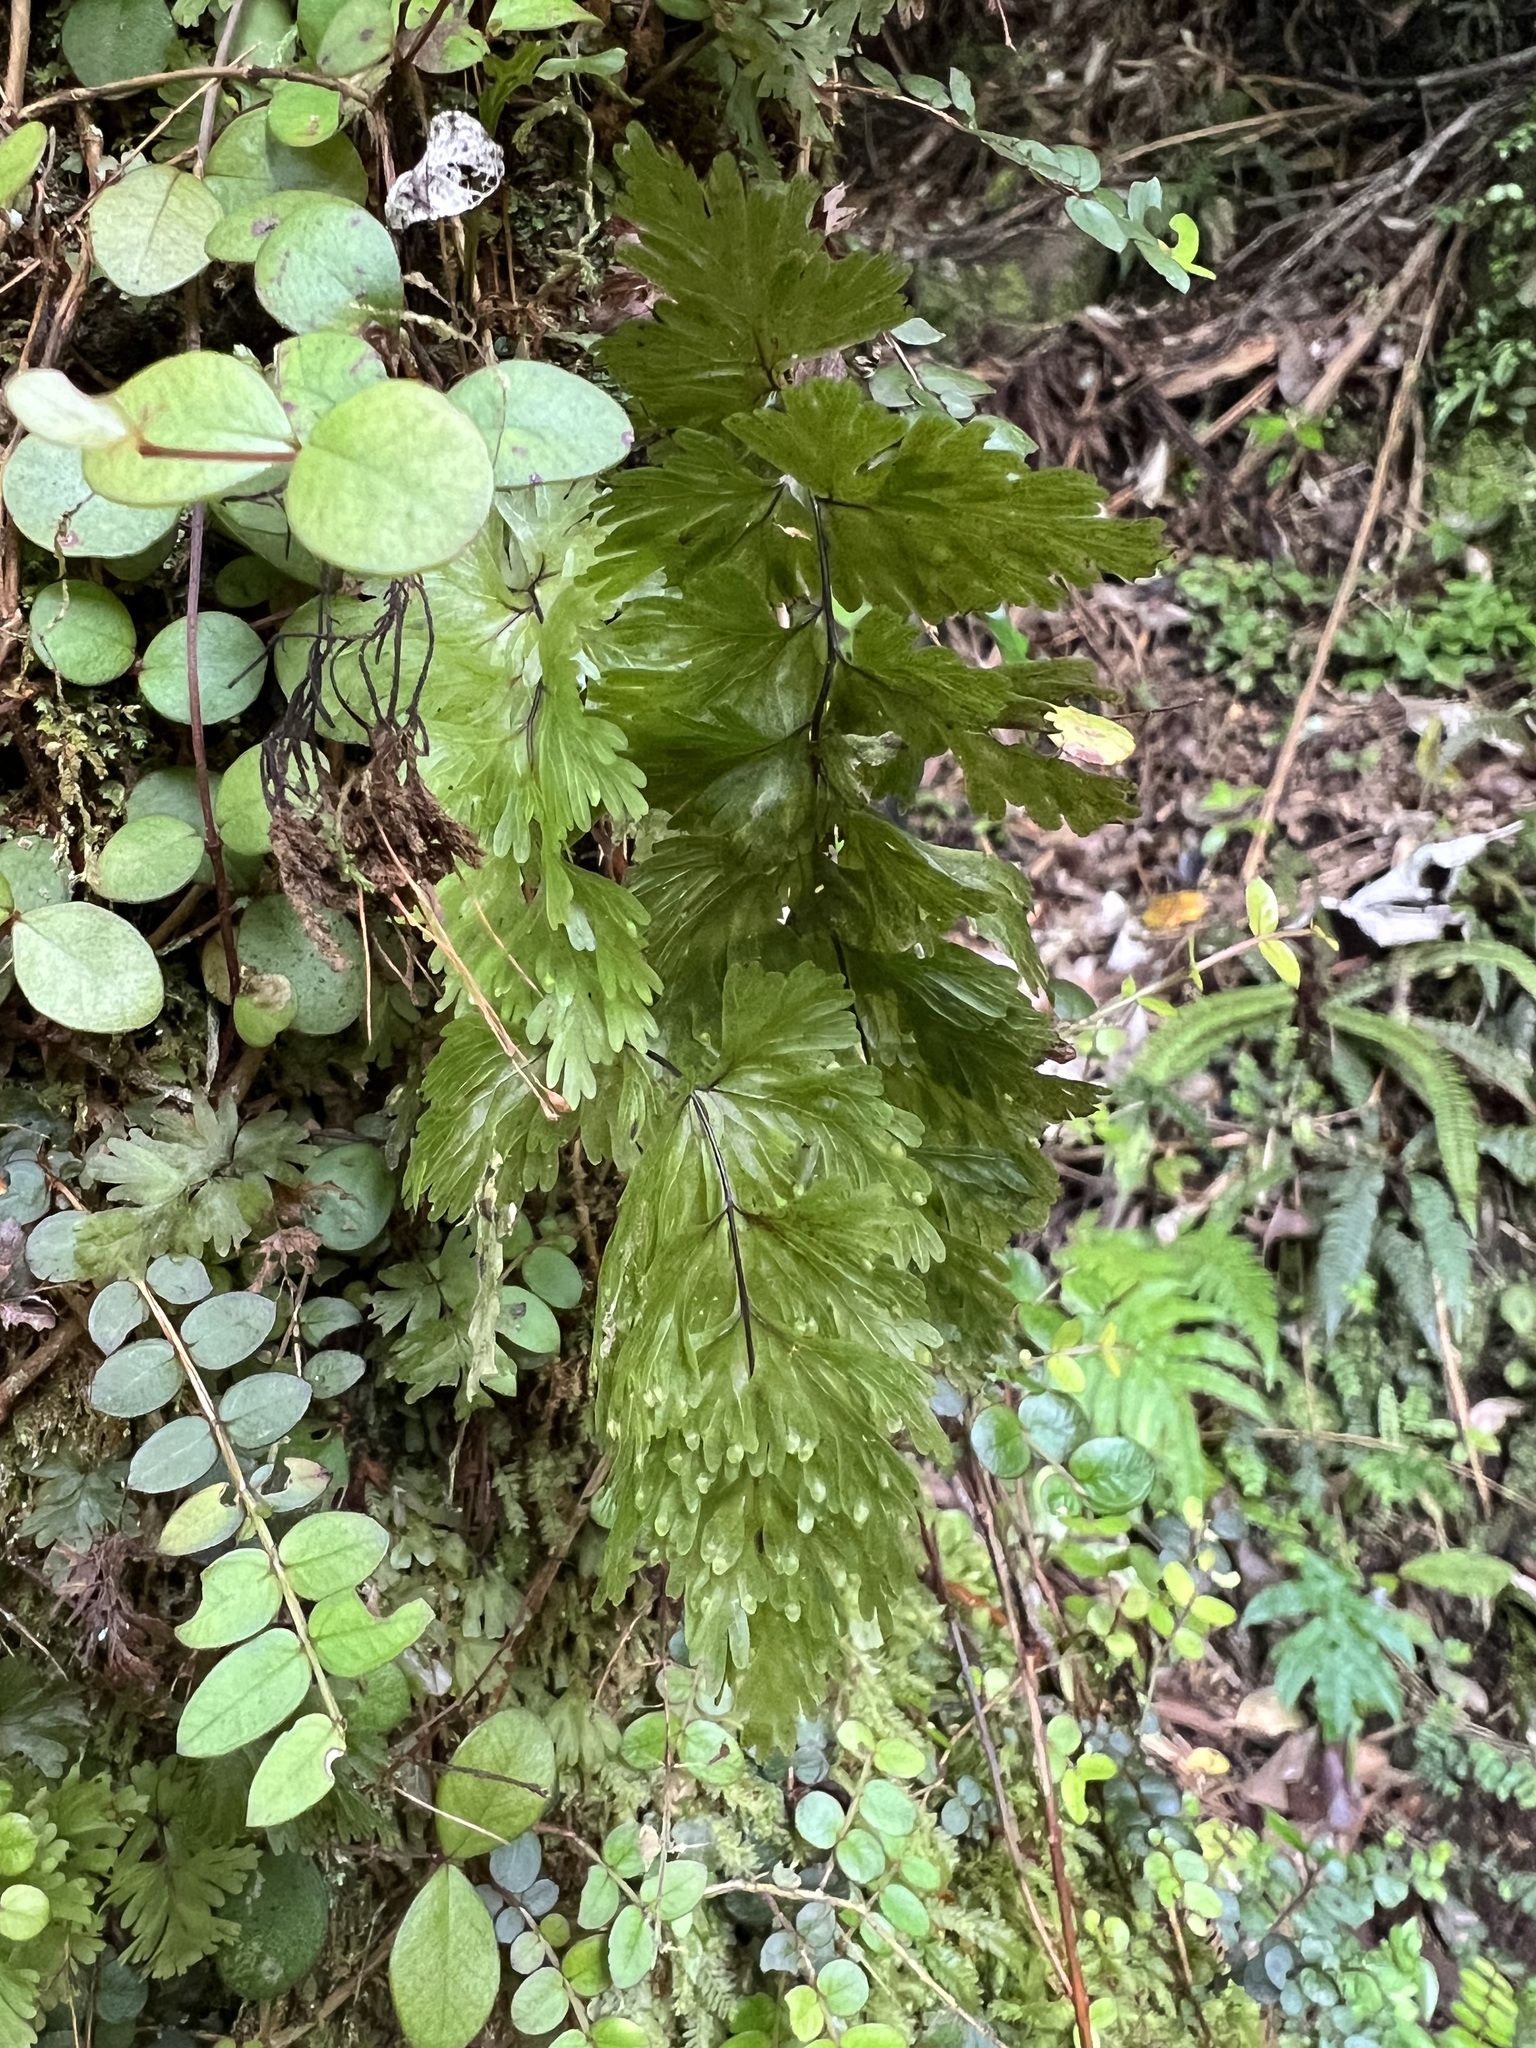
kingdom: Plantae
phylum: Tracheophyta
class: Polypodiopsida
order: Hymenophyllales
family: Hymenophyllaceae
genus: Hymenophyllum
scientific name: Hymenophyllum flabellatum
